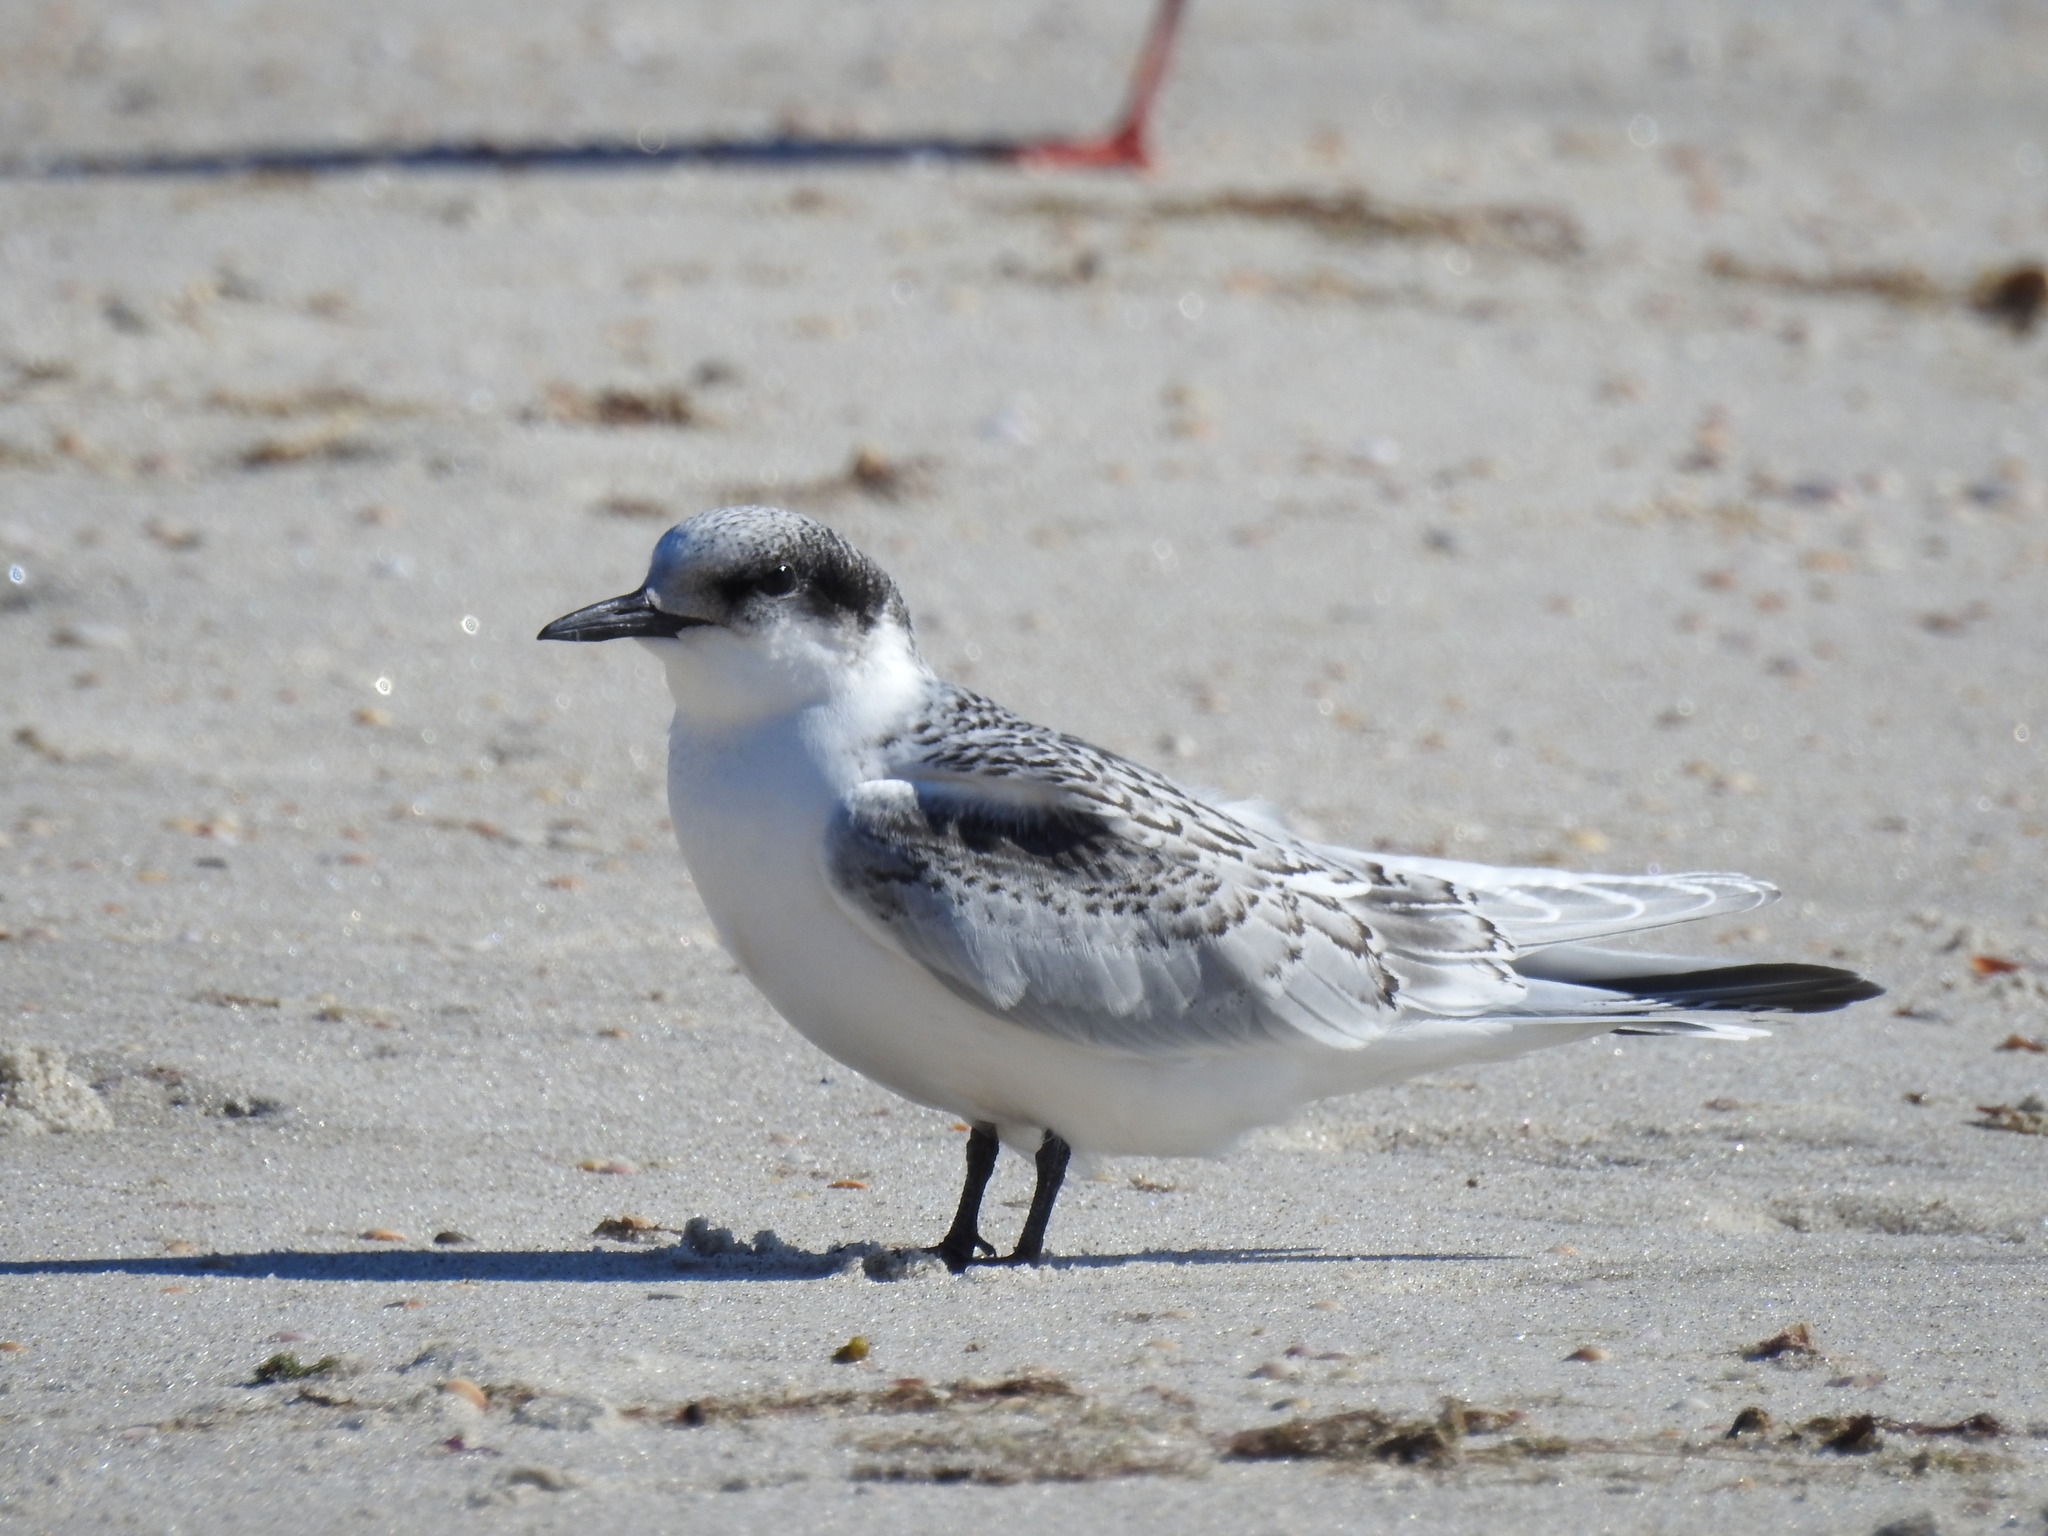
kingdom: Animalia
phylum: Chordata
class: Aves
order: Charadriiformes
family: Laridae
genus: Sterna
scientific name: Sterna striata
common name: White-fronted tern
